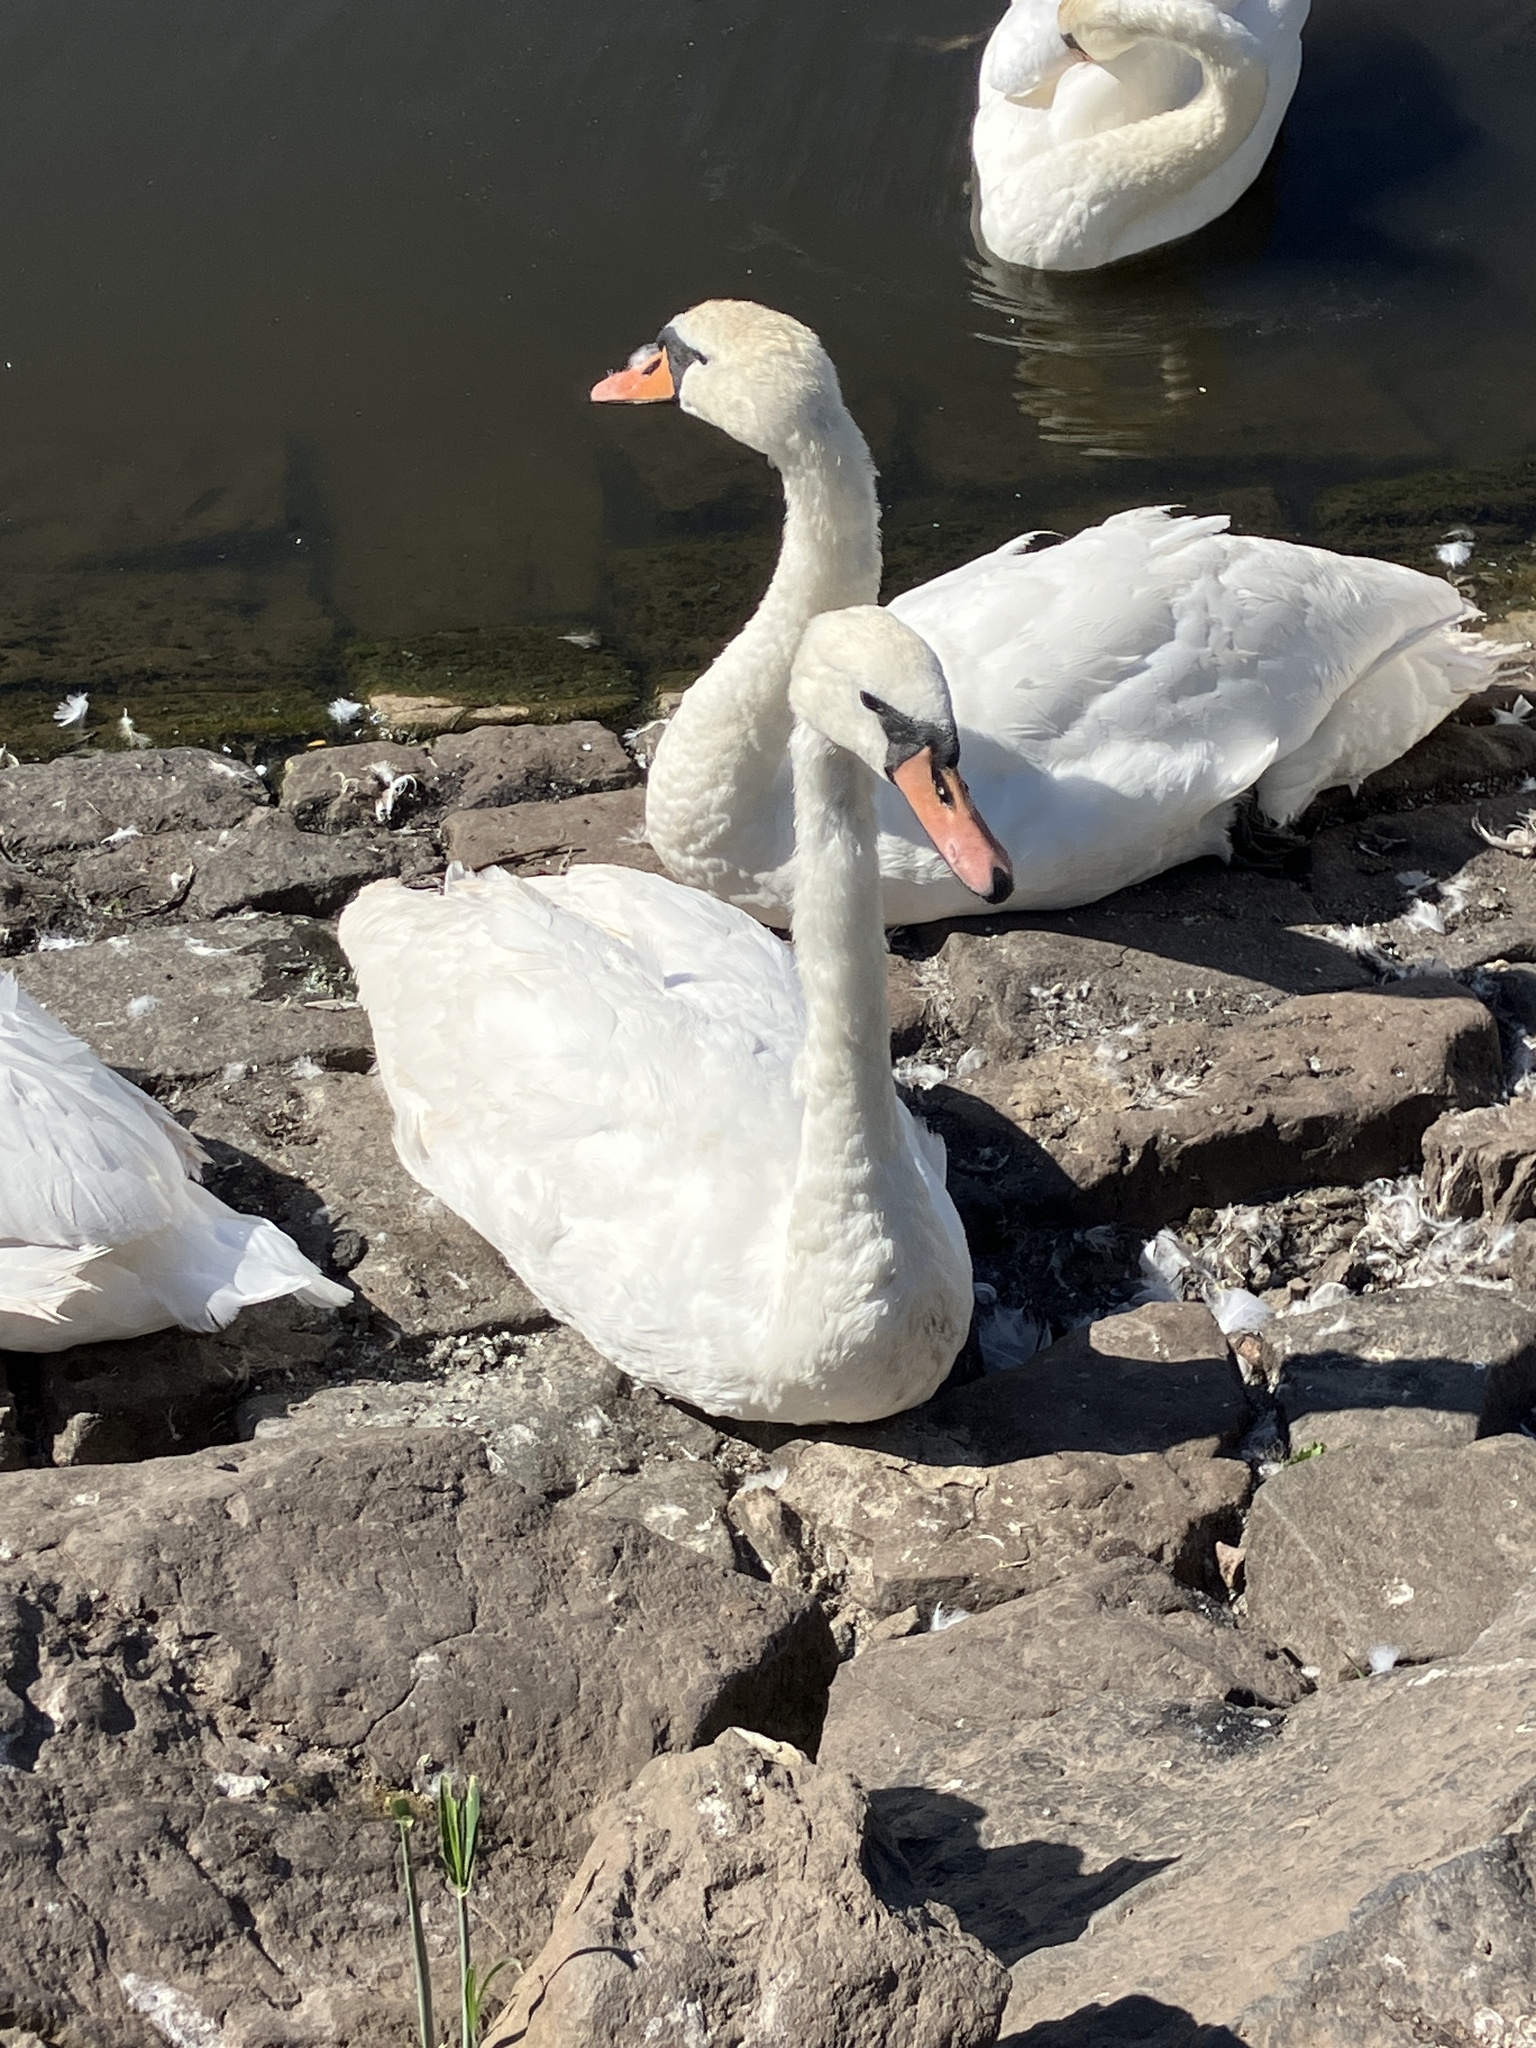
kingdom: Animalia
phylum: Chordata
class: Aves
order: Anseriformes
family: Anatidae
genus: Cygnus
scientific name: Cygnus olor
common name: Mute swan
